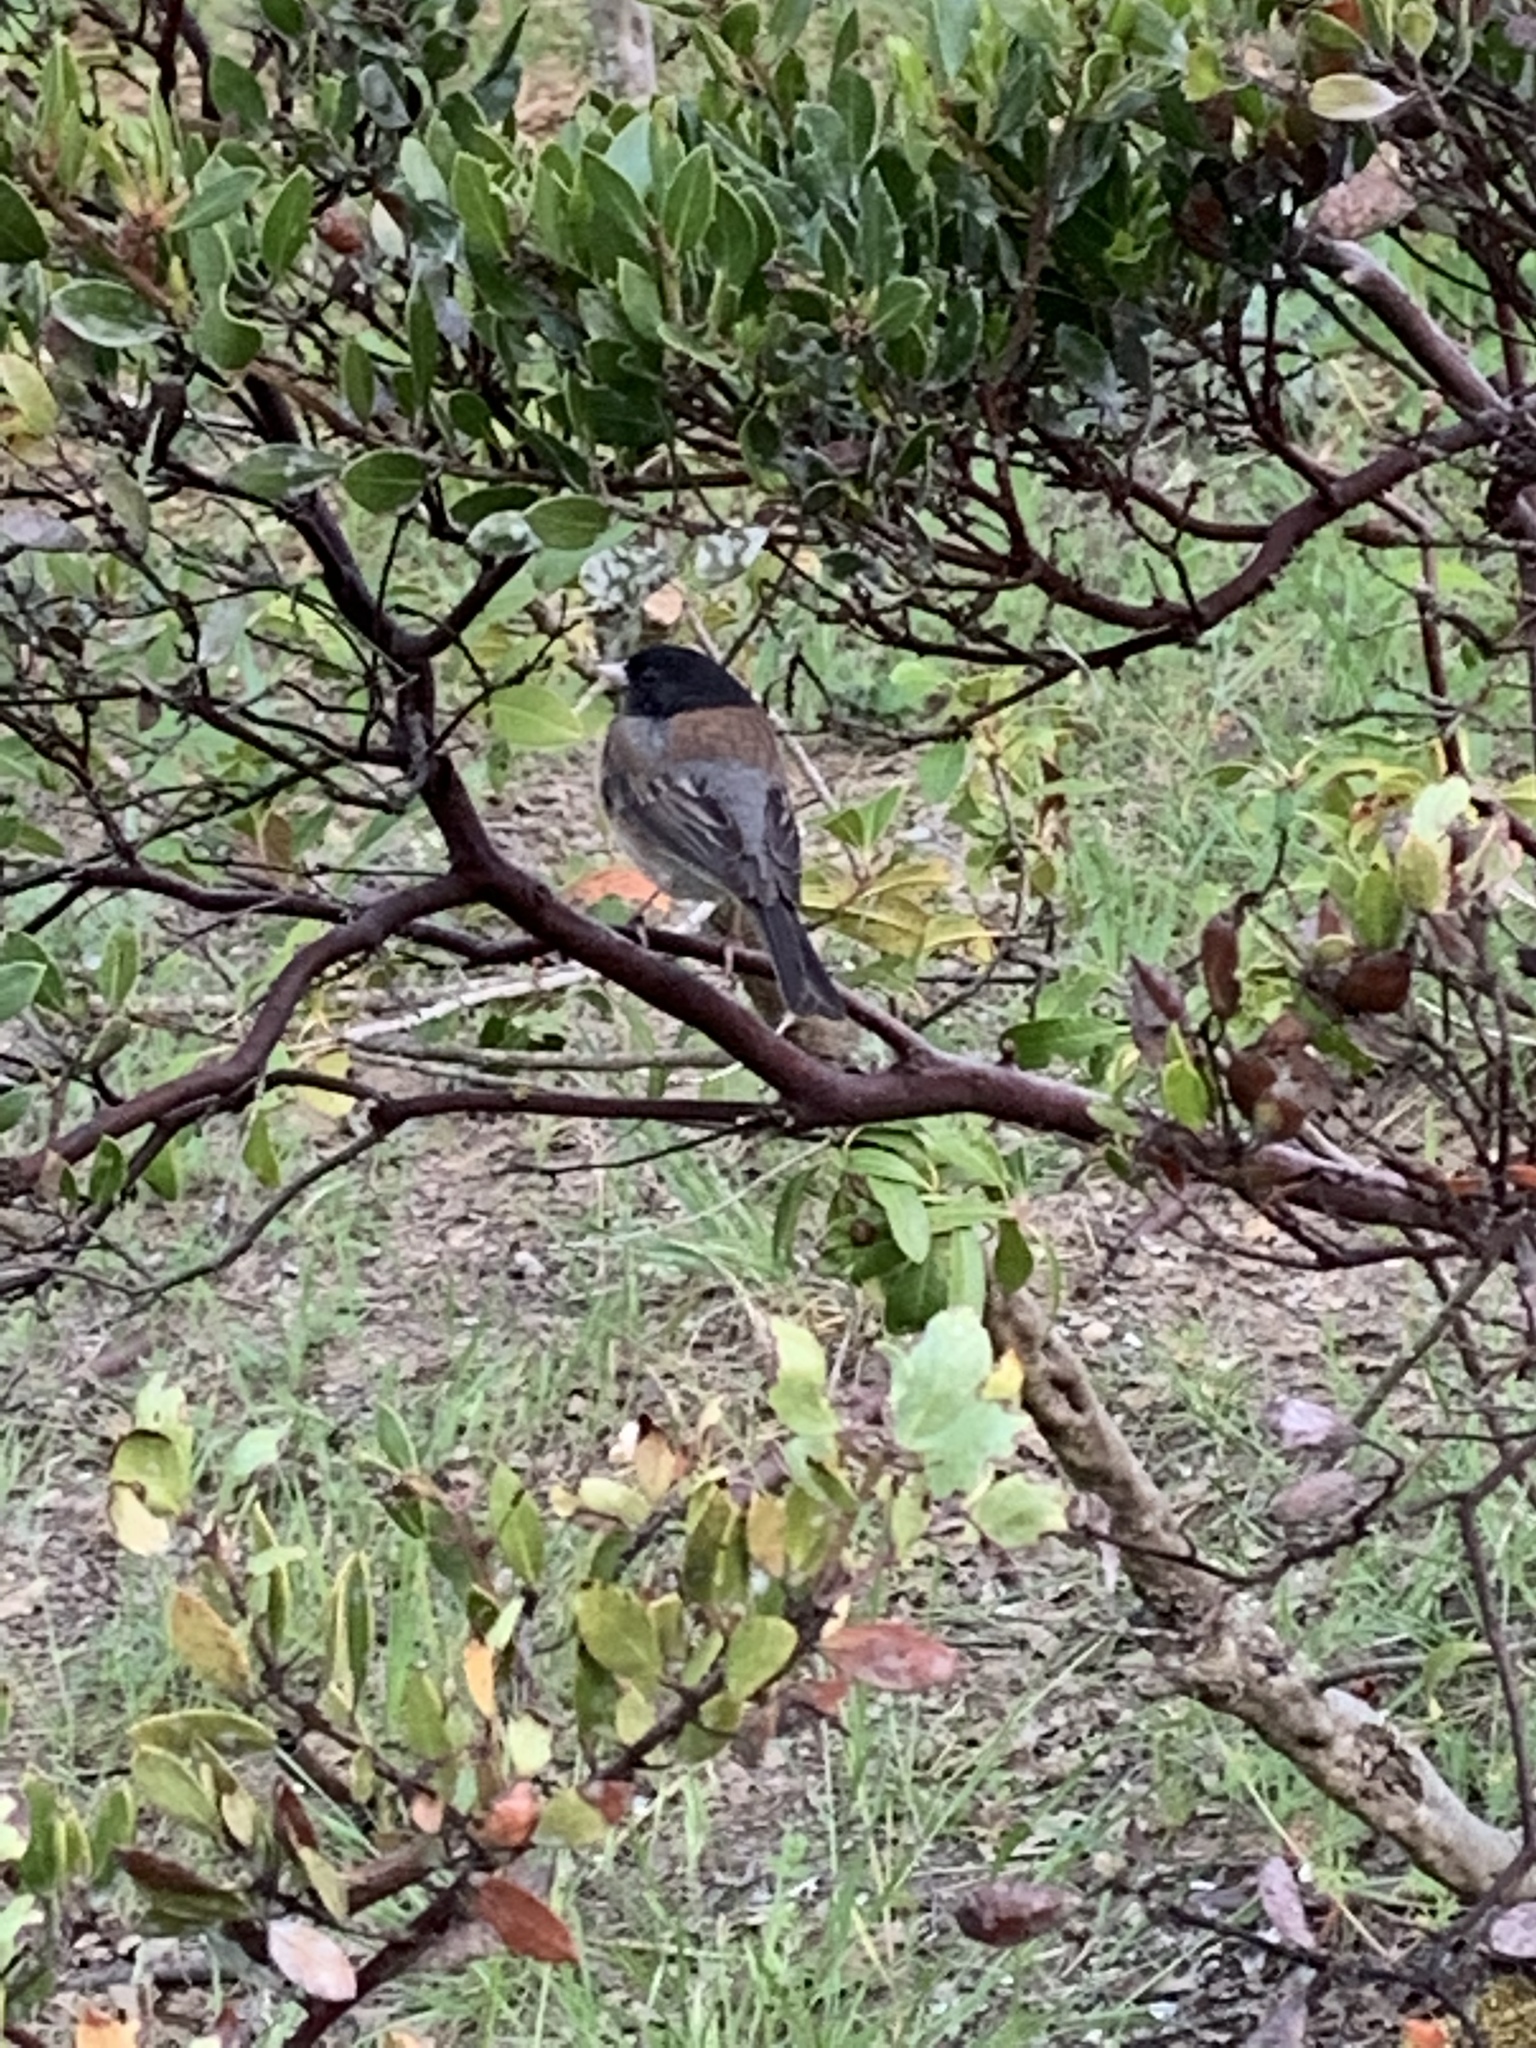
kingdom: Animalia
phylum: Chordata
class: Aves
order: Passeriformes
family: Passerellidae
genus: Junco
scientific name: Junco hyemalis
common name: Dark-eyed junco
